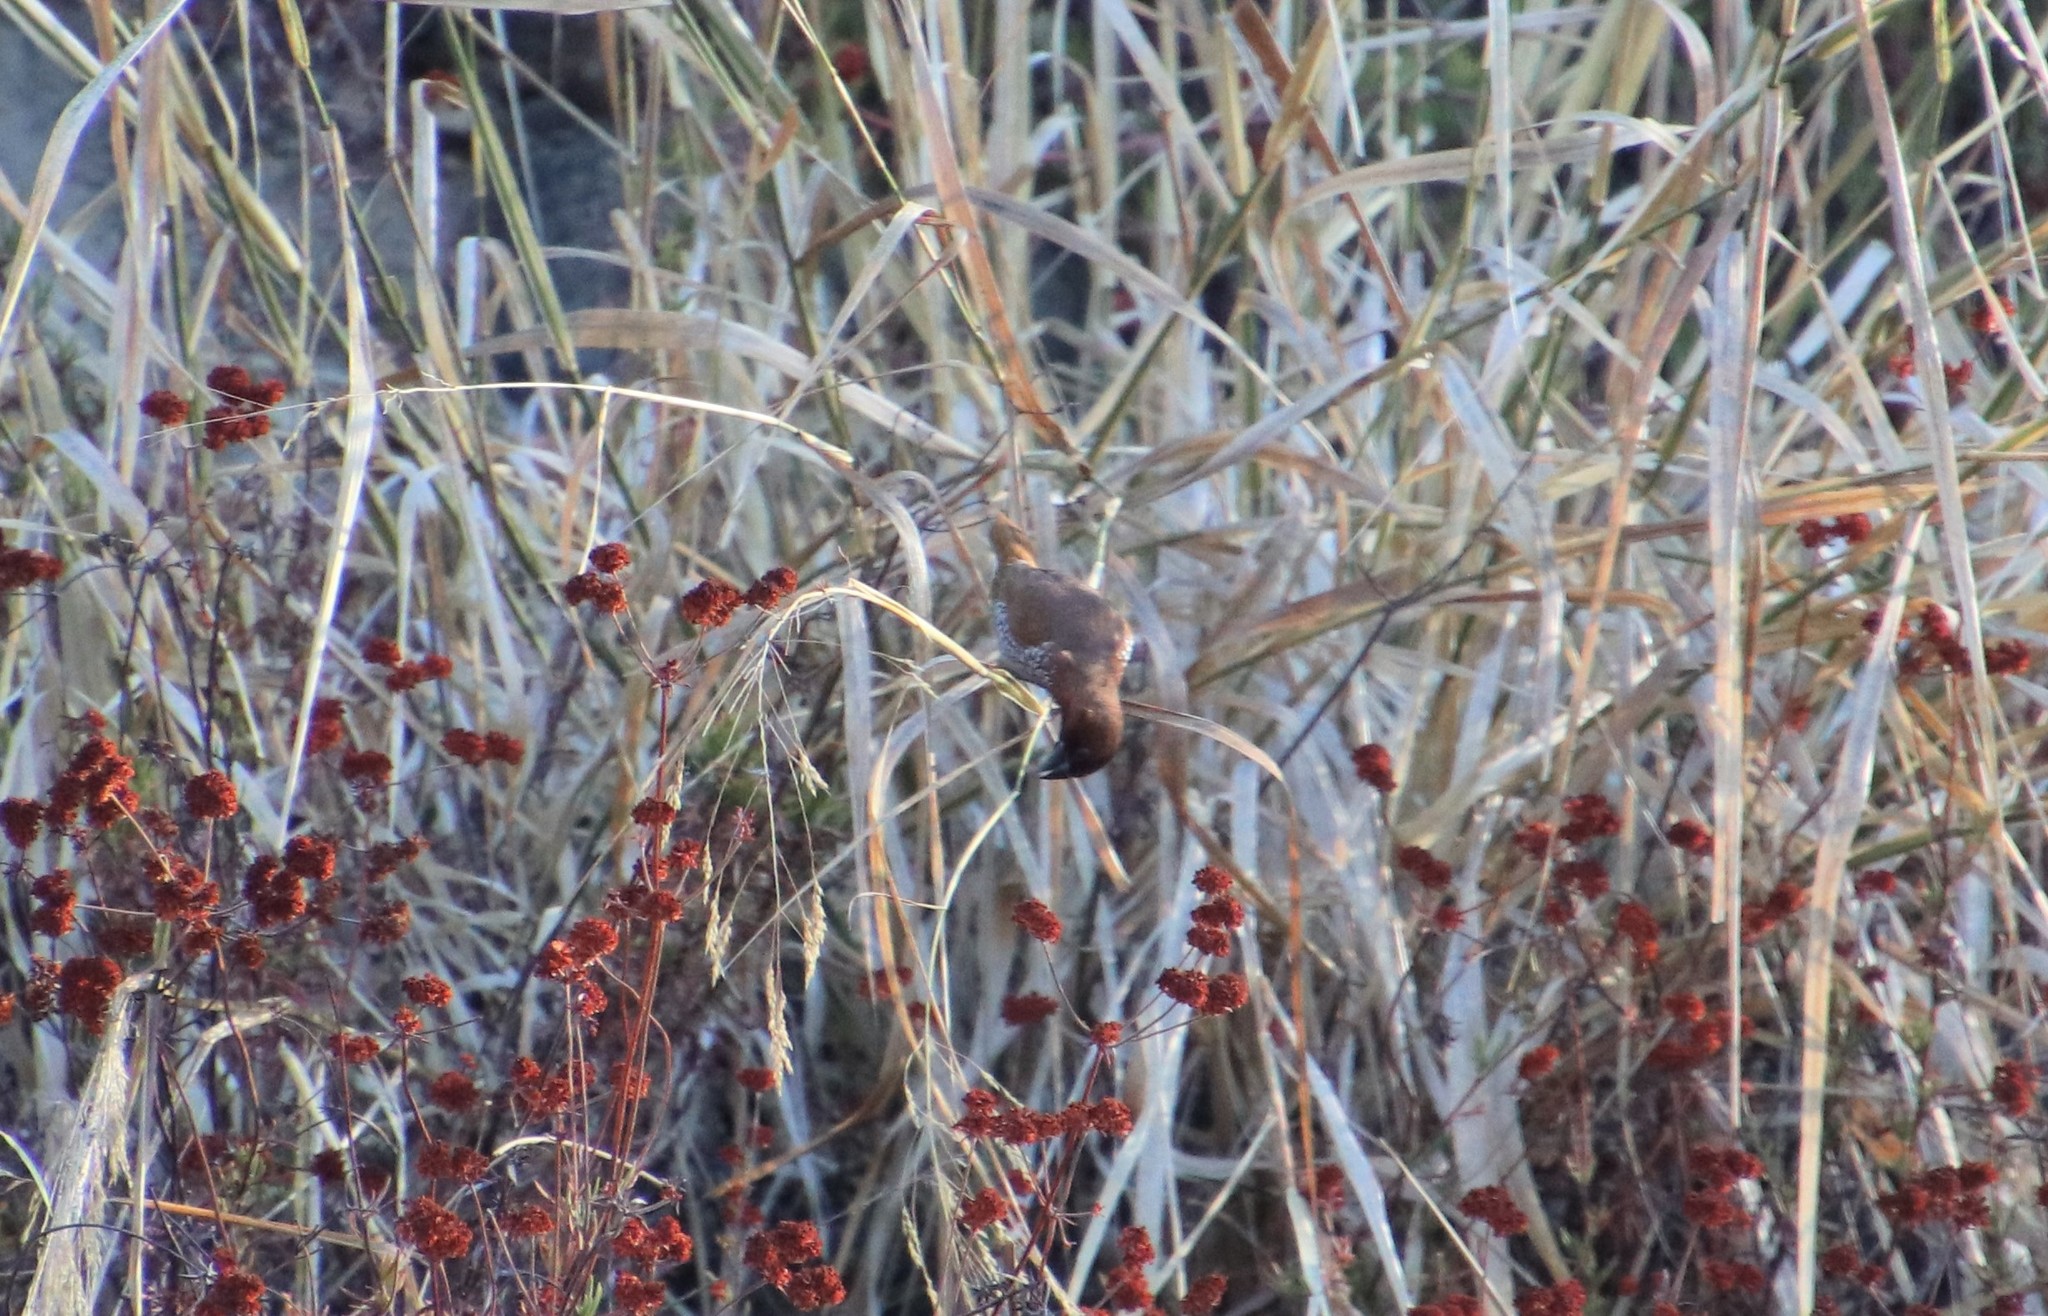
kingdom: Animalia
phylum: Chordata
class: Aves
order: Passeriformes
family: Estrildidae
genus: Lonchura
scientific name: Lonchura punctulata
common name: Scaly-breasted munia
